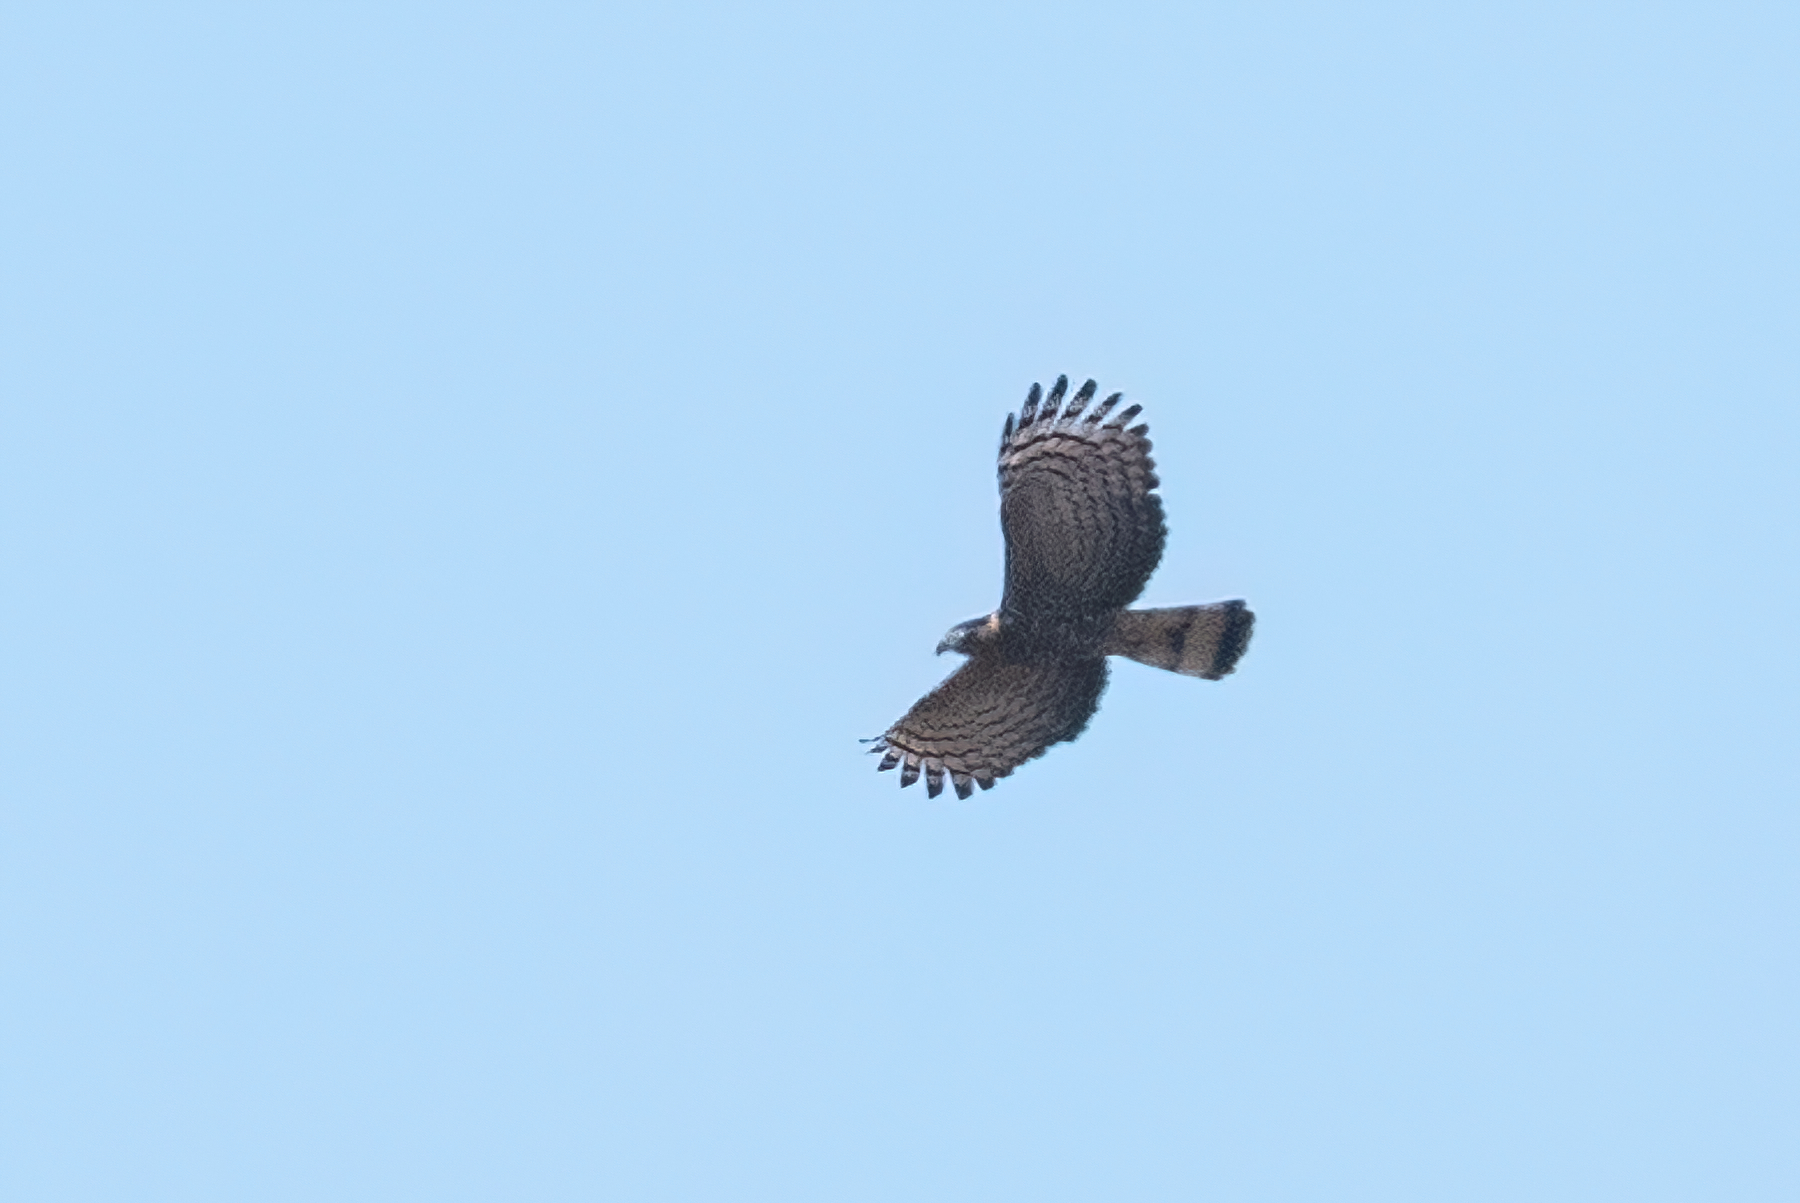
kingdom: Animalia
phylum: Chordata
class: Aves
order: Accipitriformes
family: Accipitridae
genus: Chondrohierax
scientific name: Chondrohierax uncinatus
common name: Hook-billed kite
